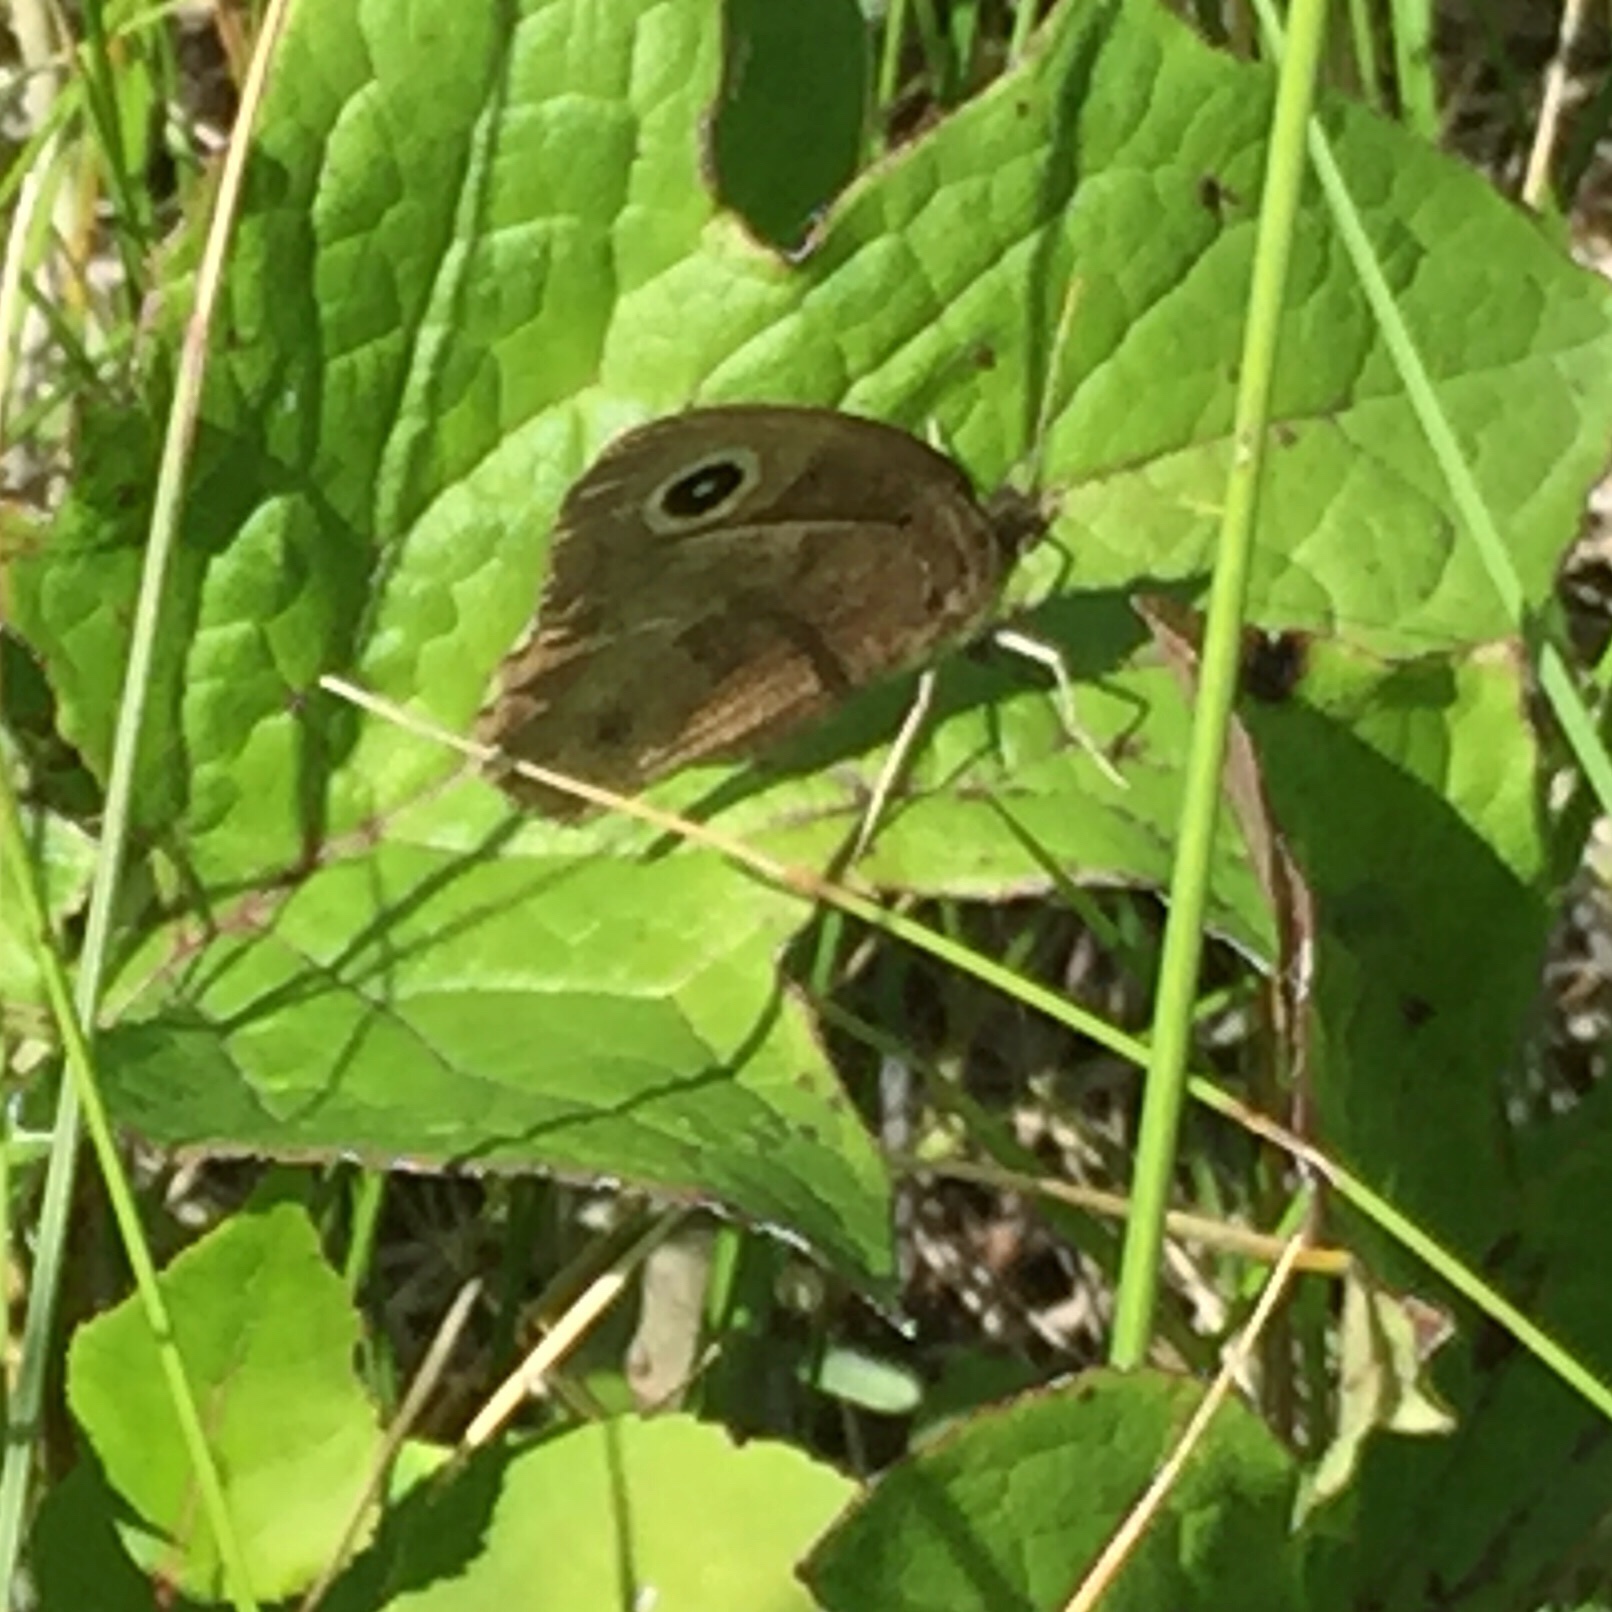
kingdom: Animalia
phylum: Arthropoda
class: Insecta
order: Lepidoptera
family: Nymphalidae
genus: Cercyonis
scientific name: Cercyonis pegala
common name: Common wood-nymph
